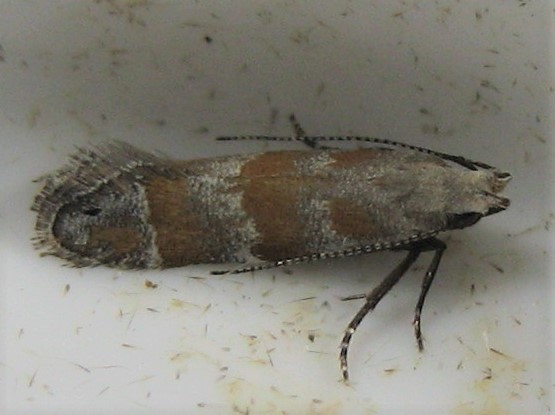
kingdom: Animalia
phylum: Arthropoda
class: Insecta
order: Lepidoptera
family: Gelechiidae
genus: Battaristis
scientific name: Battaristis vittella
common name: Orange stripe-backed moth
